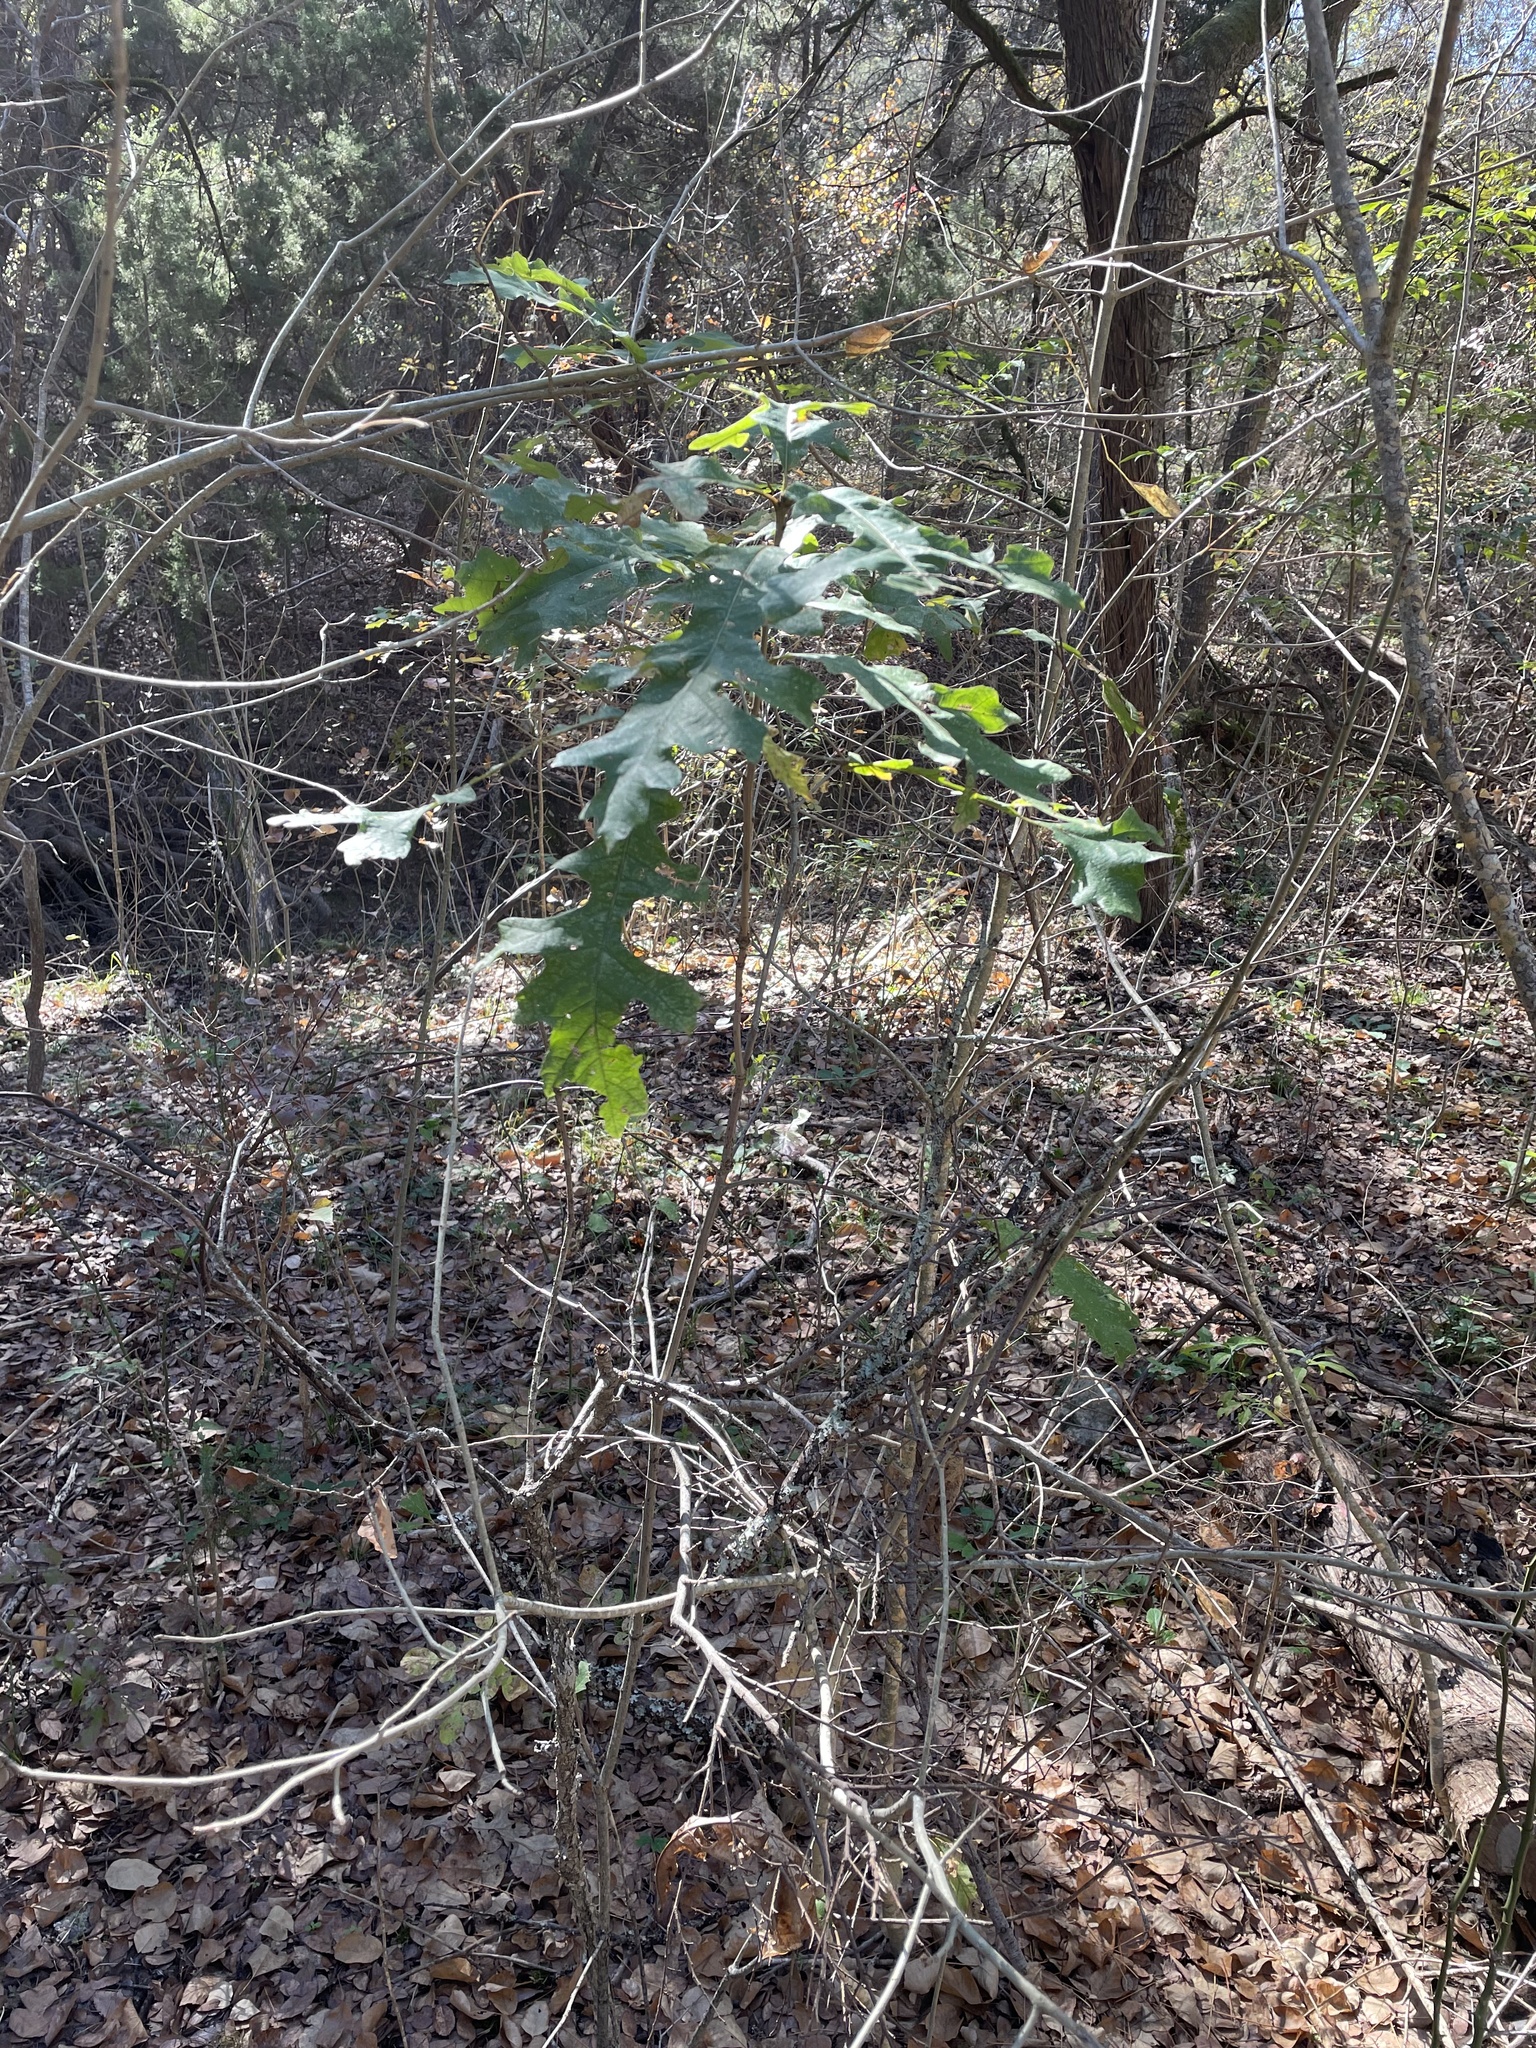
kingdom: Plantae
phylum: Tracheophyta
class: Magnoliopsida
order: Fagales
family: Fagaceae
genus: Quercus
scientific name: Quercus macrocarpa
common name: Bur oak
